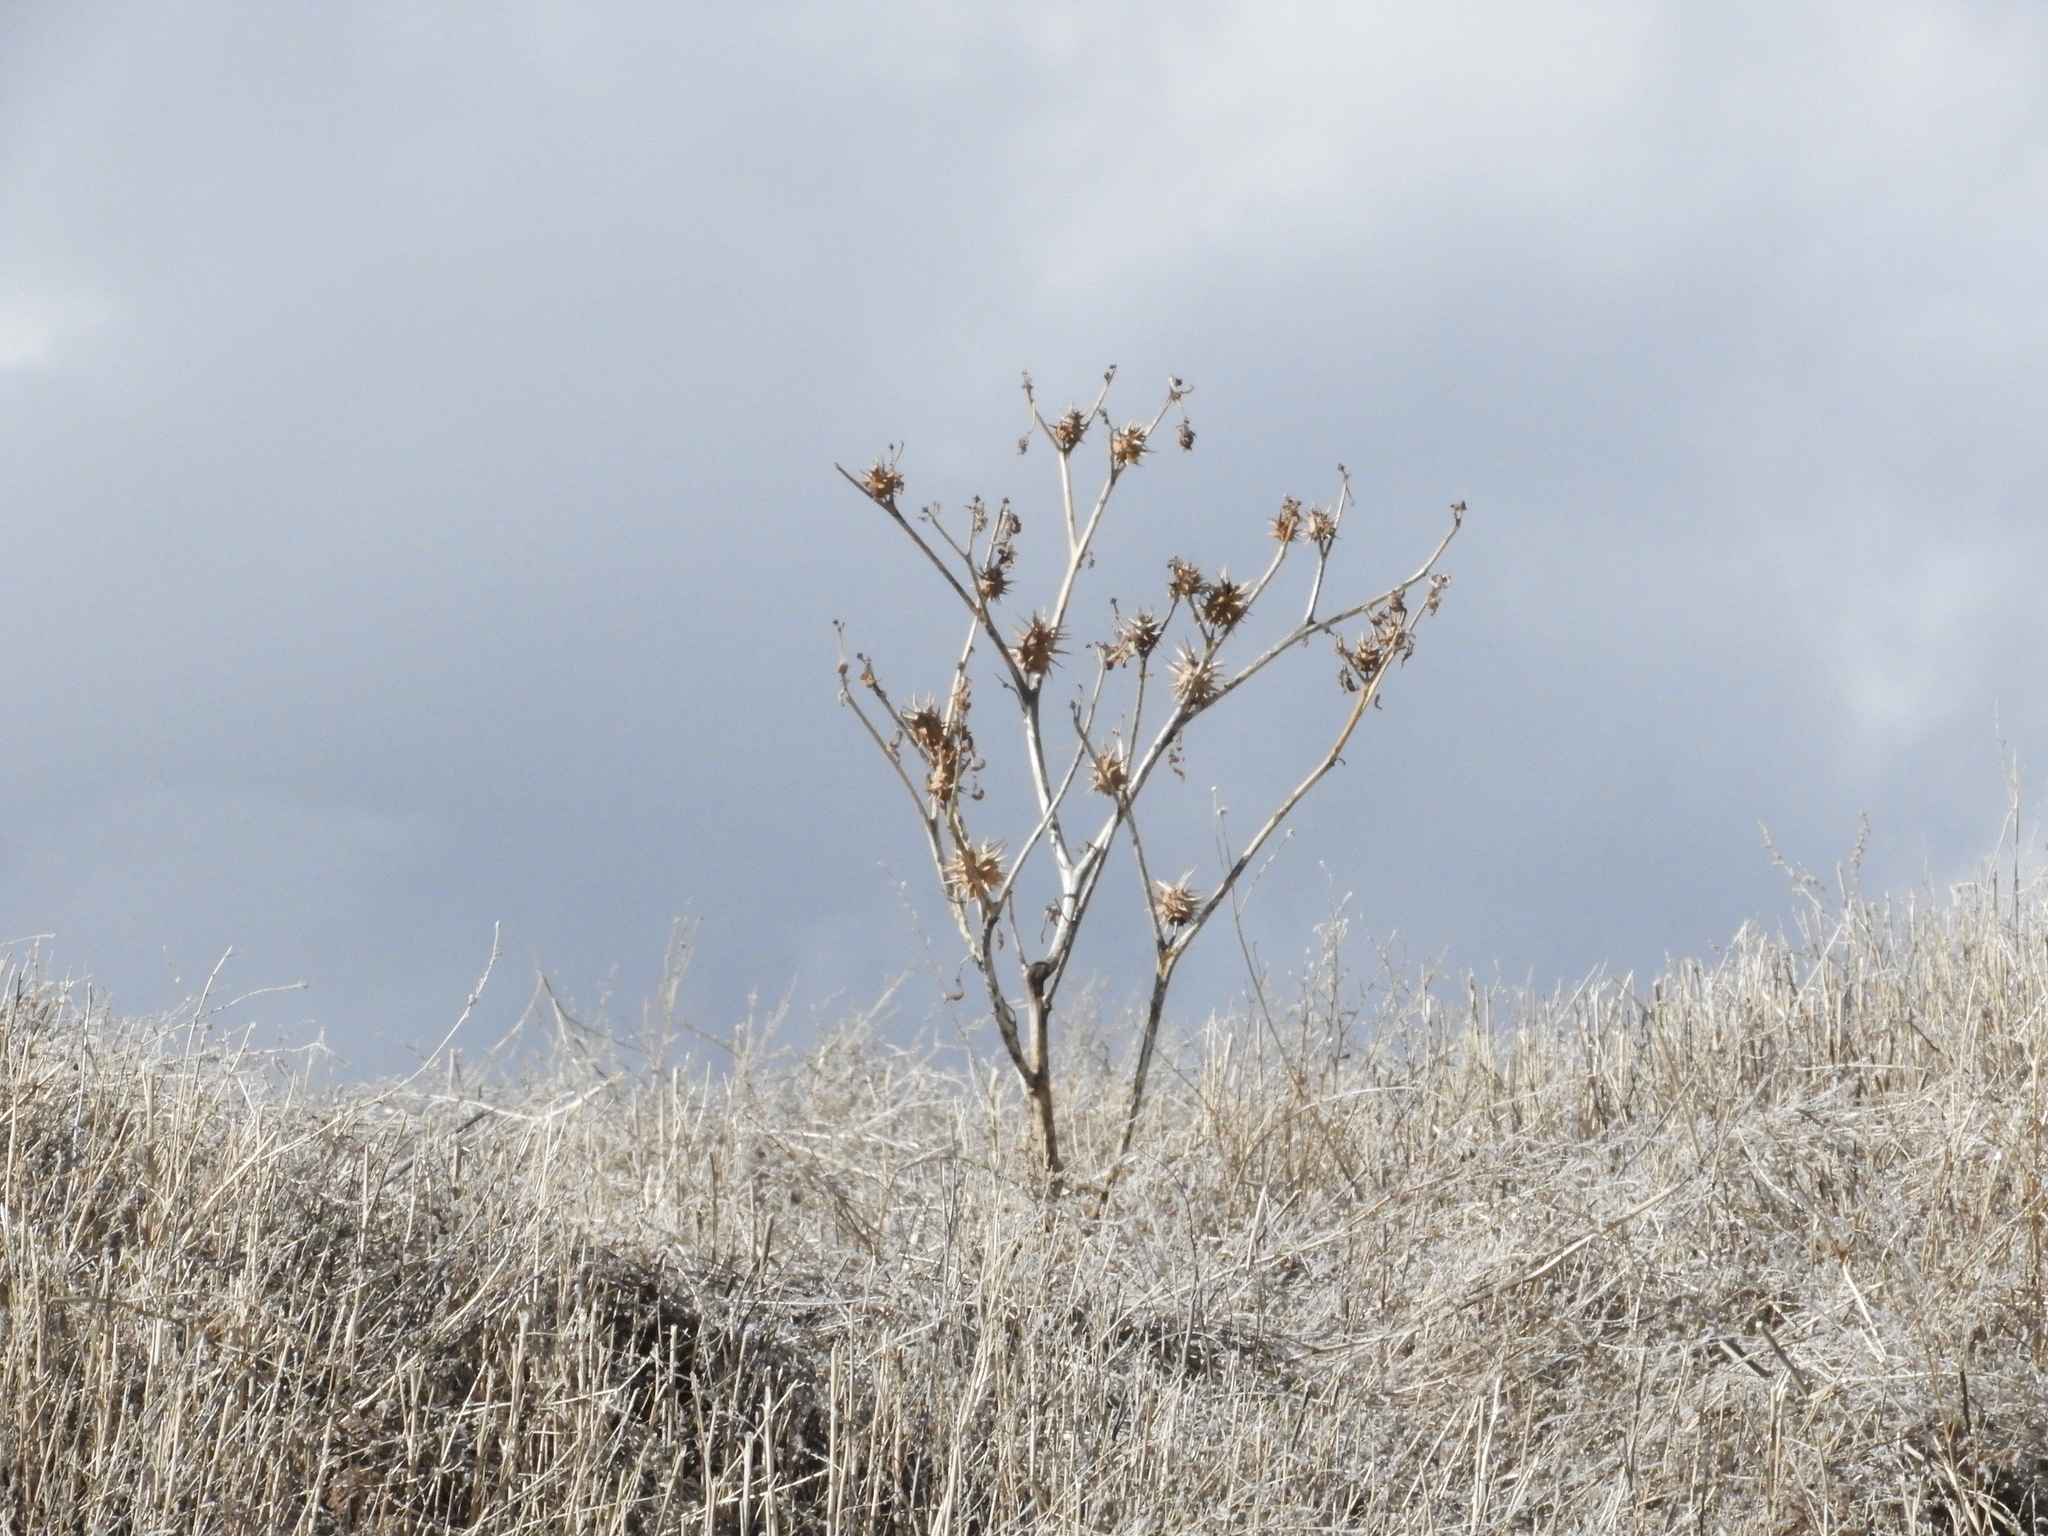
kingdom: Plantae
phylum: Tracheophyta
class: Magnoliopsida
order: Solanales
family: Solanaceae
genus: Datura
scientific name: Datura quercifolia
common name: Oak-leaf datura
